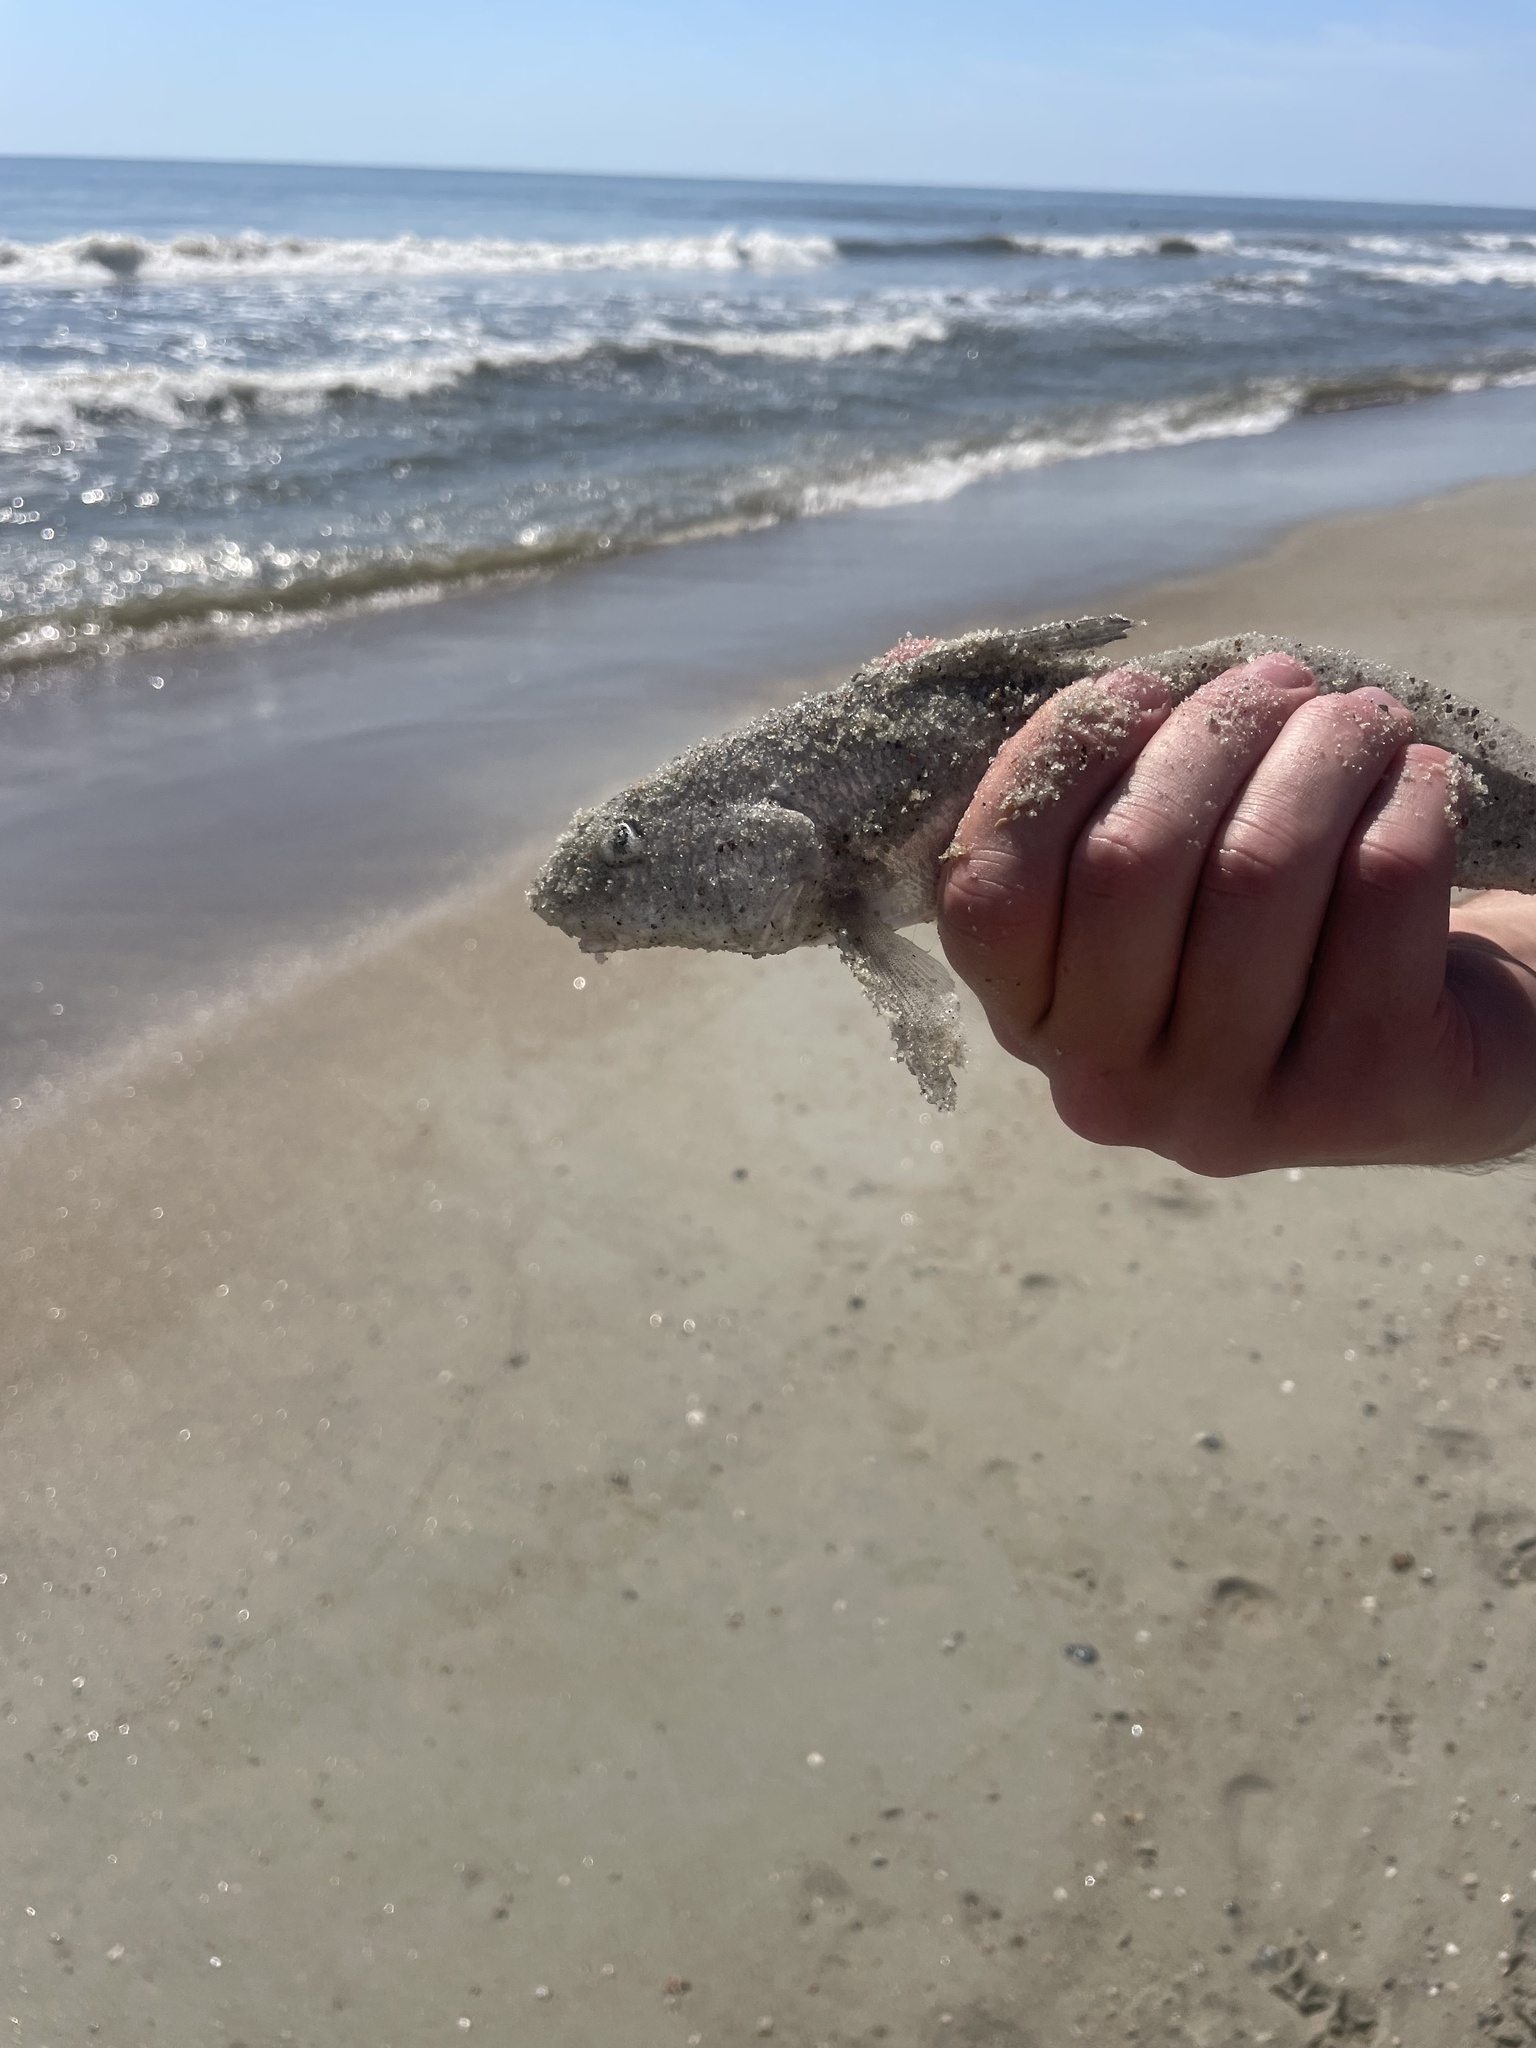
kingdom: Animalia
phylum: Chordata
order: Perciformes
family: Sciaenidae
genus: Menticirrhus
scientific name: Menticirrhus littoralis
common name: Gulf kingcroaker
